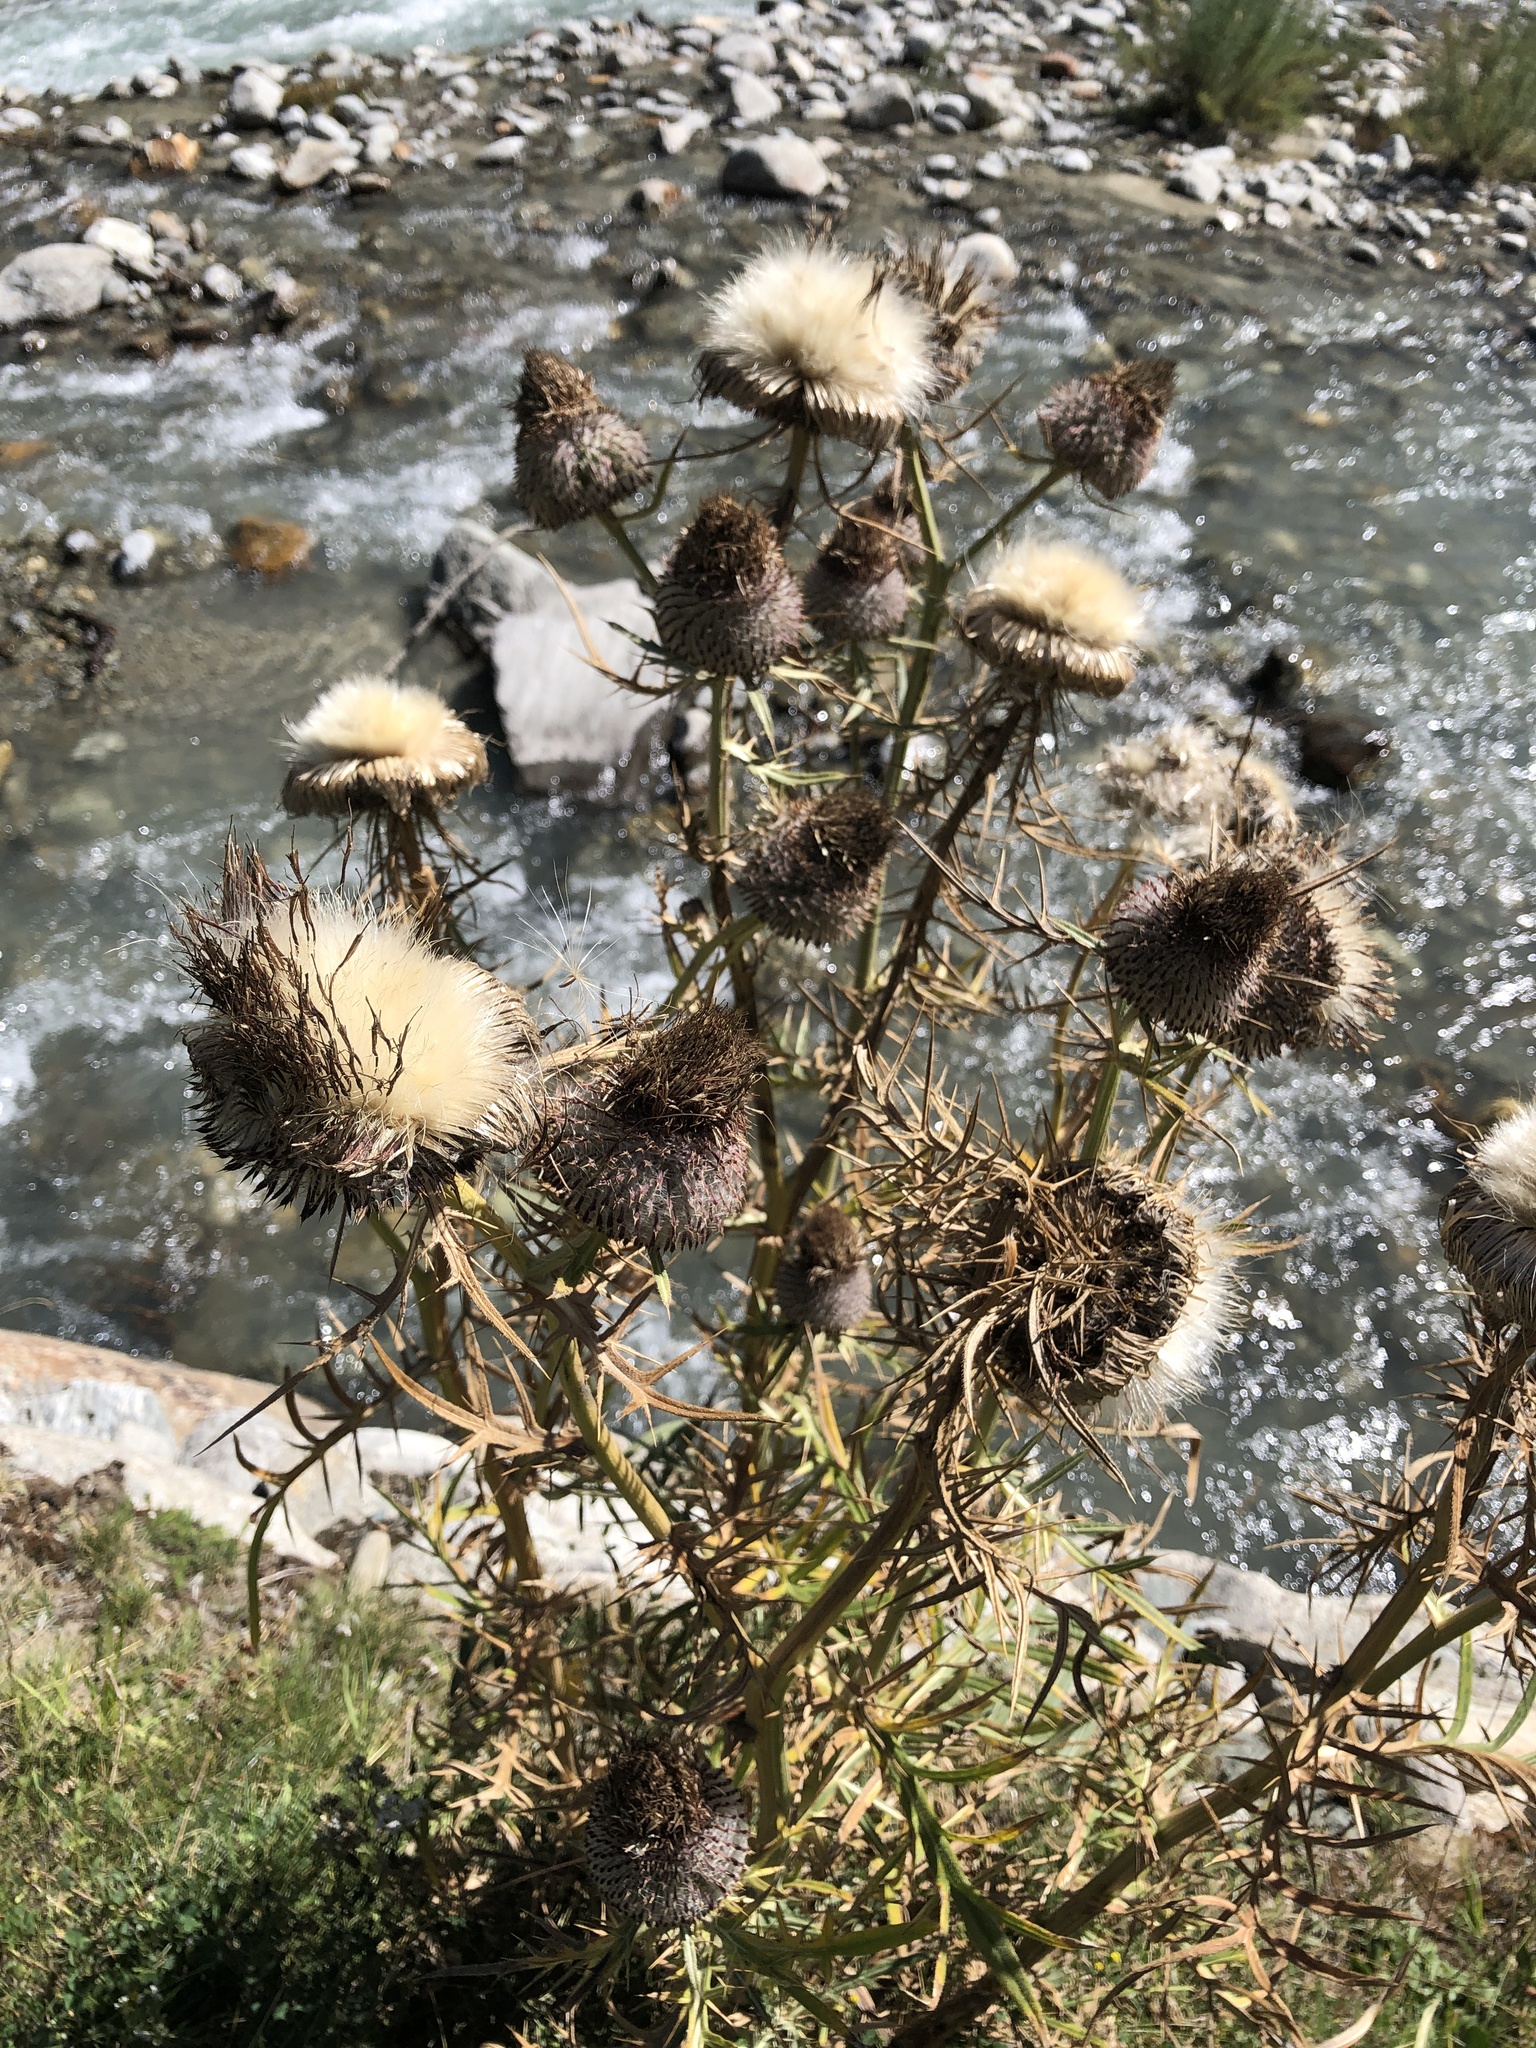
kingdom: Plantae
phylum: Tracheophyta
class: Magnoliopsida
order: Asterales
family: Asteraceae
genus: Lophiolepis
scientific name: Lophiolepis eriophora
